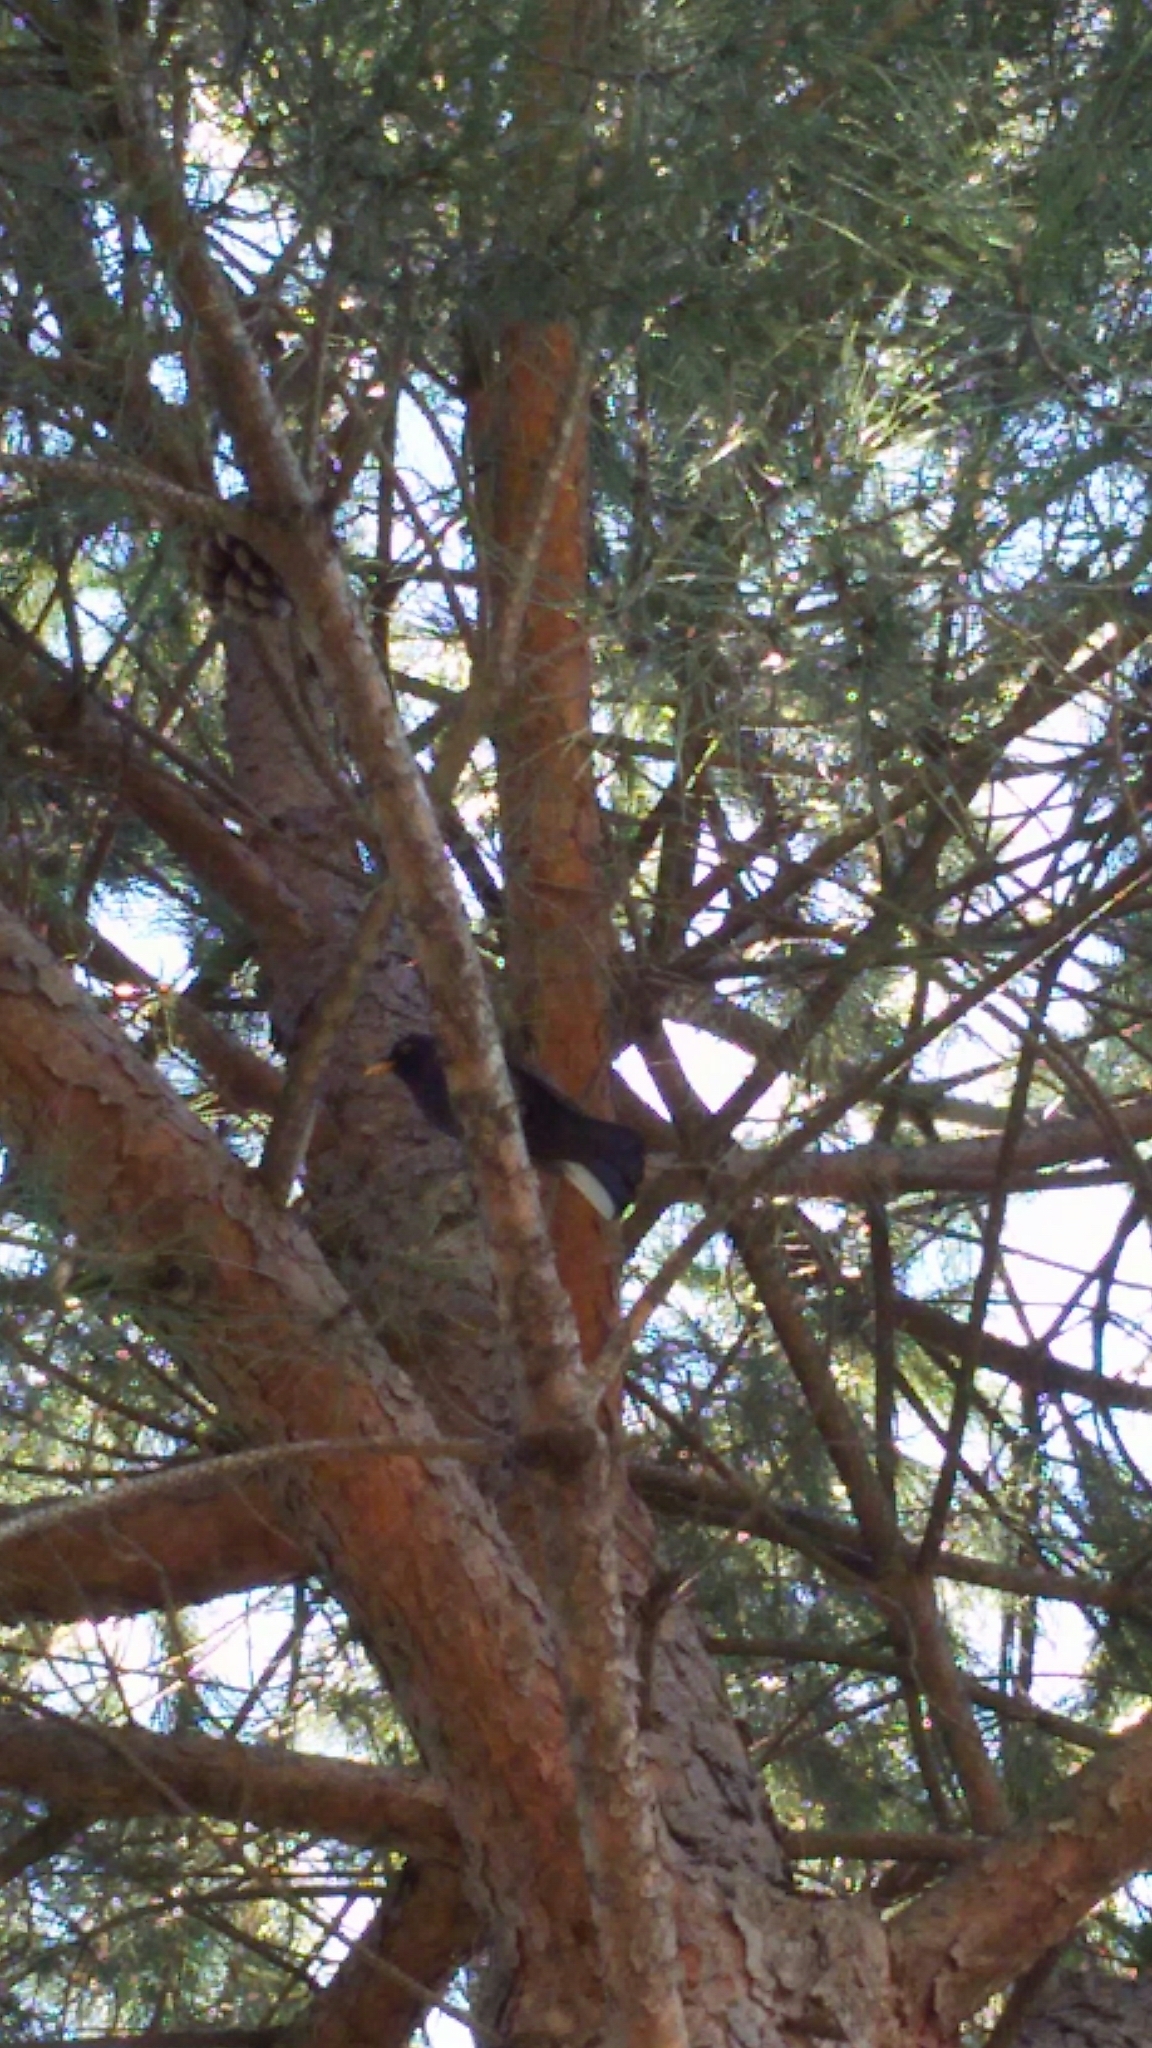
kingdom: Animalia
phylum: Chordata
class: Aves
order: Passeriformes
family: Turdidae
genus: Turdus
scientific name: Turdus merula
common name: Common blackbird
